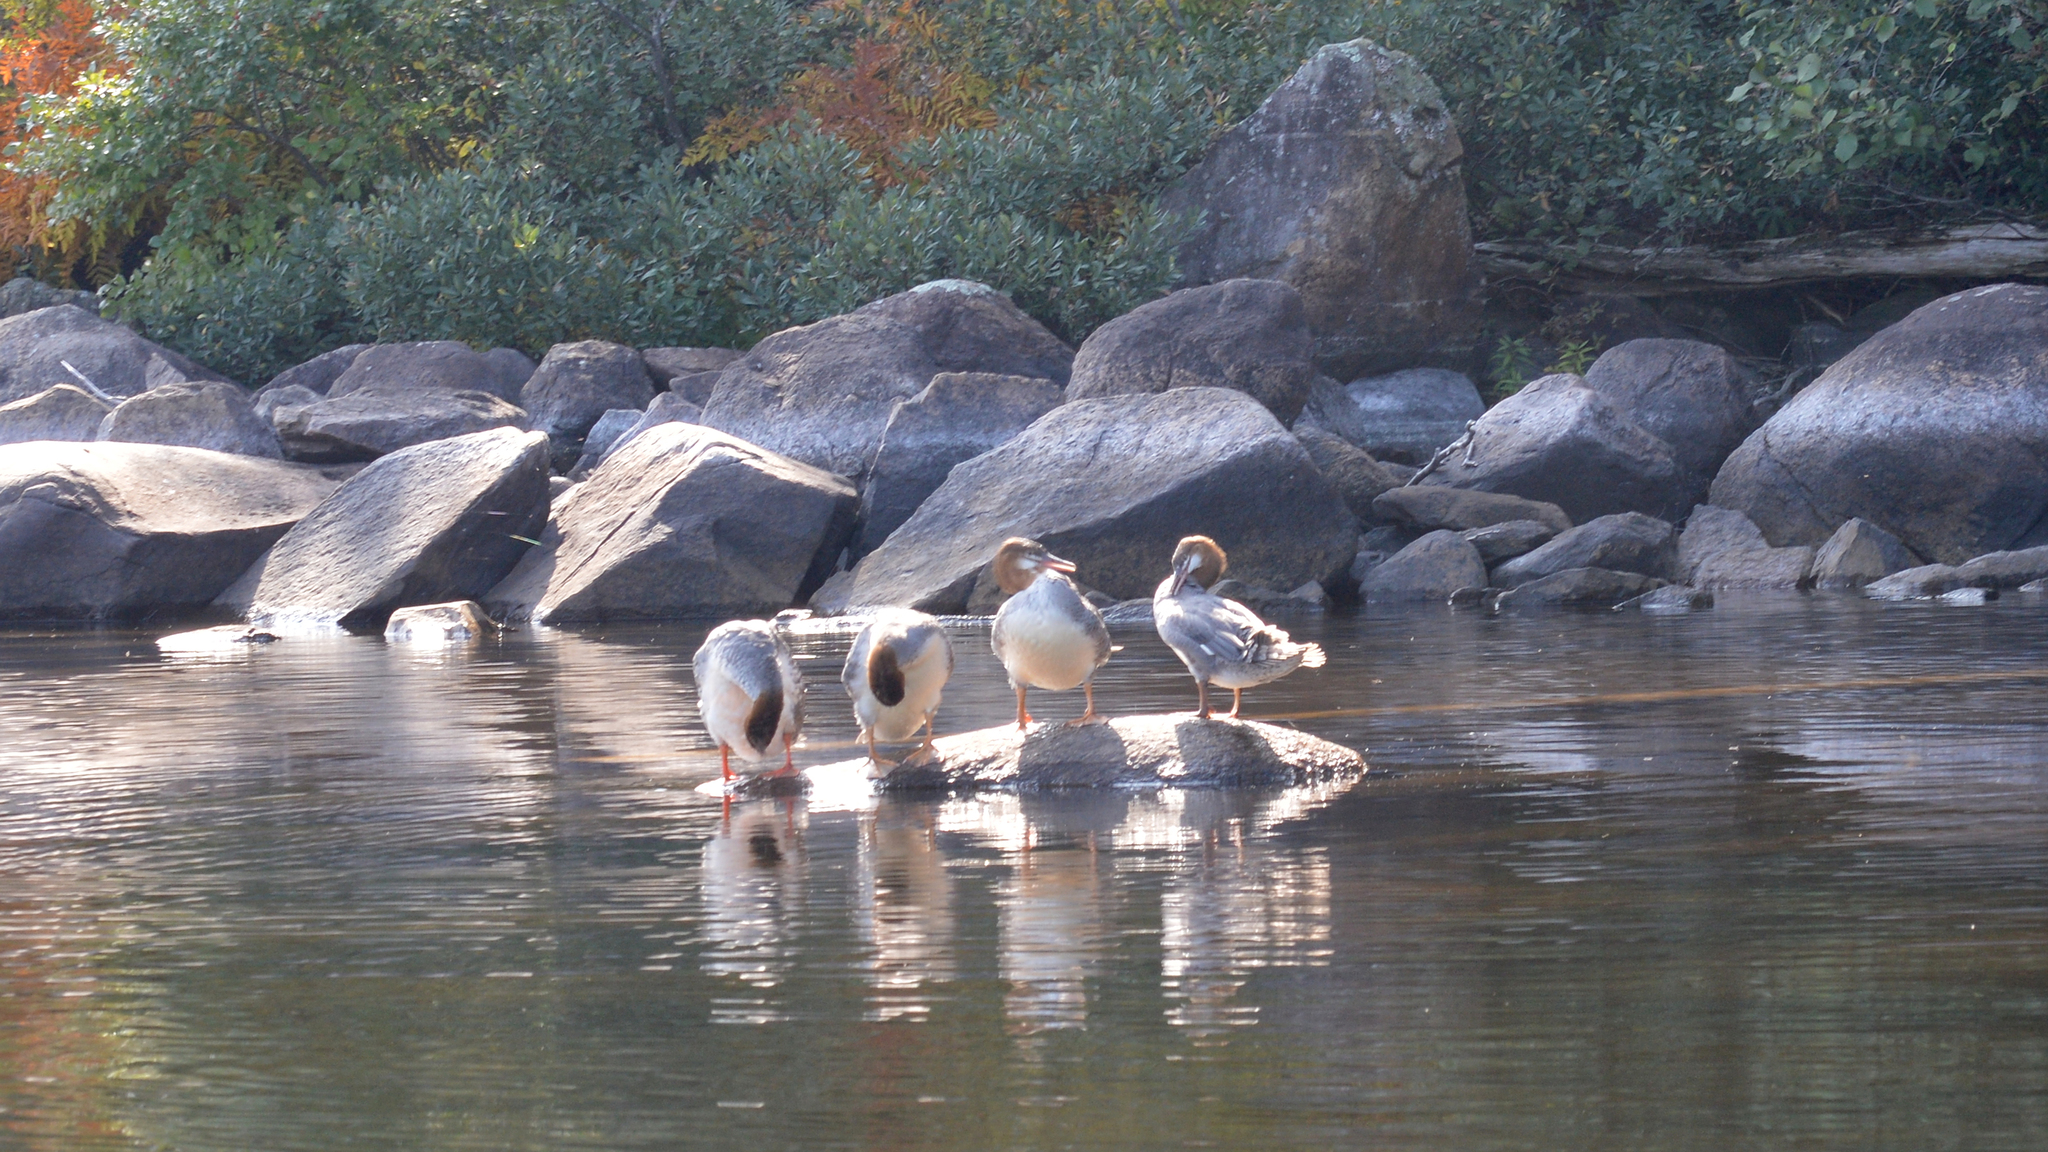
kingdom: Animalia
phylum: Chordata
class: Aves
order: Anseriformes
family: Anatidae
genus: Mergus
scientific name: Mergus merganser
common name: Common merganser
